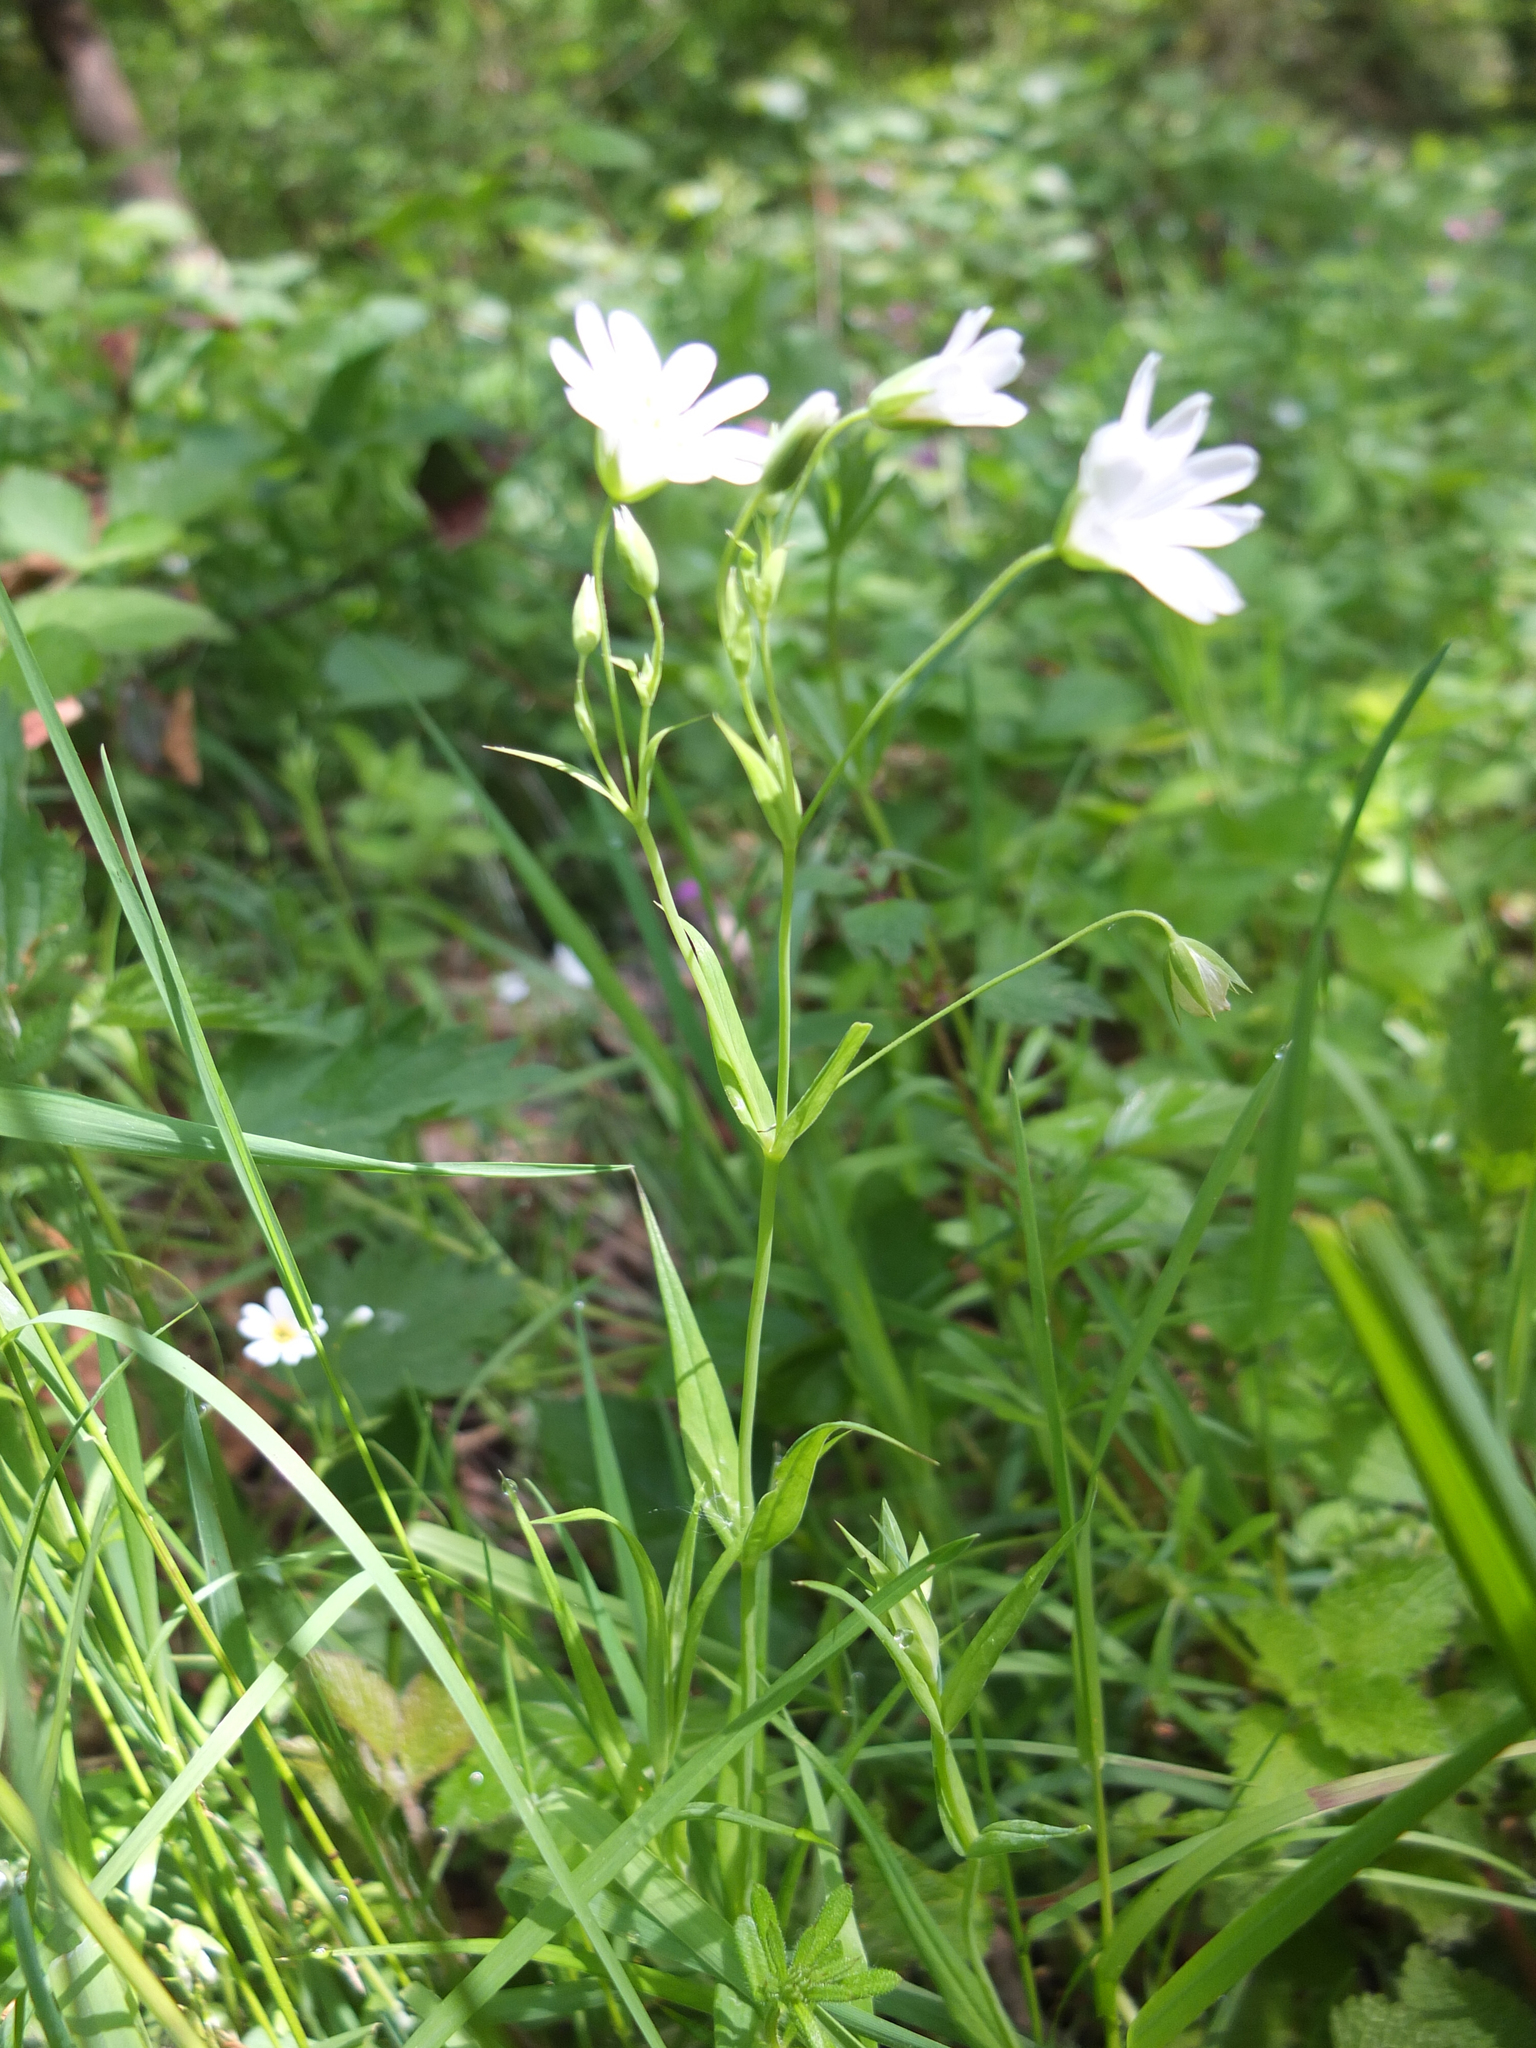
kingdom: Plantae
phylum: Tracheophyta
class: Magnoliopsida
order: Caryophyllales
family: Caryophyllaceae
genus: Rabelera
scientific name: Rabelera holostea
